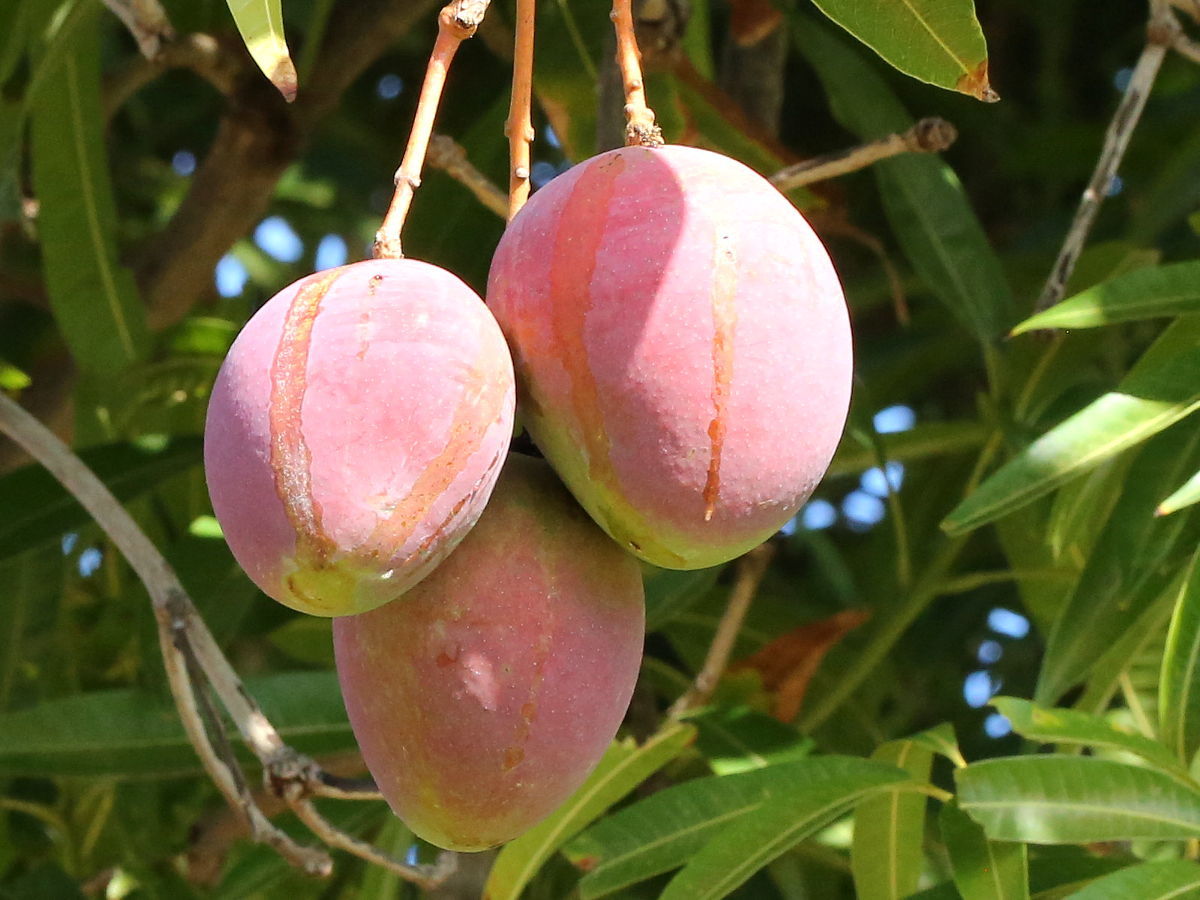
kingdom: Plantae
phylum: Tracheophyta
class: Magnoliopsida
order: Sapindales
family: Anacardiaceae
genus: Mangifera
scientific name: Mangifera indica
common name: Mango
